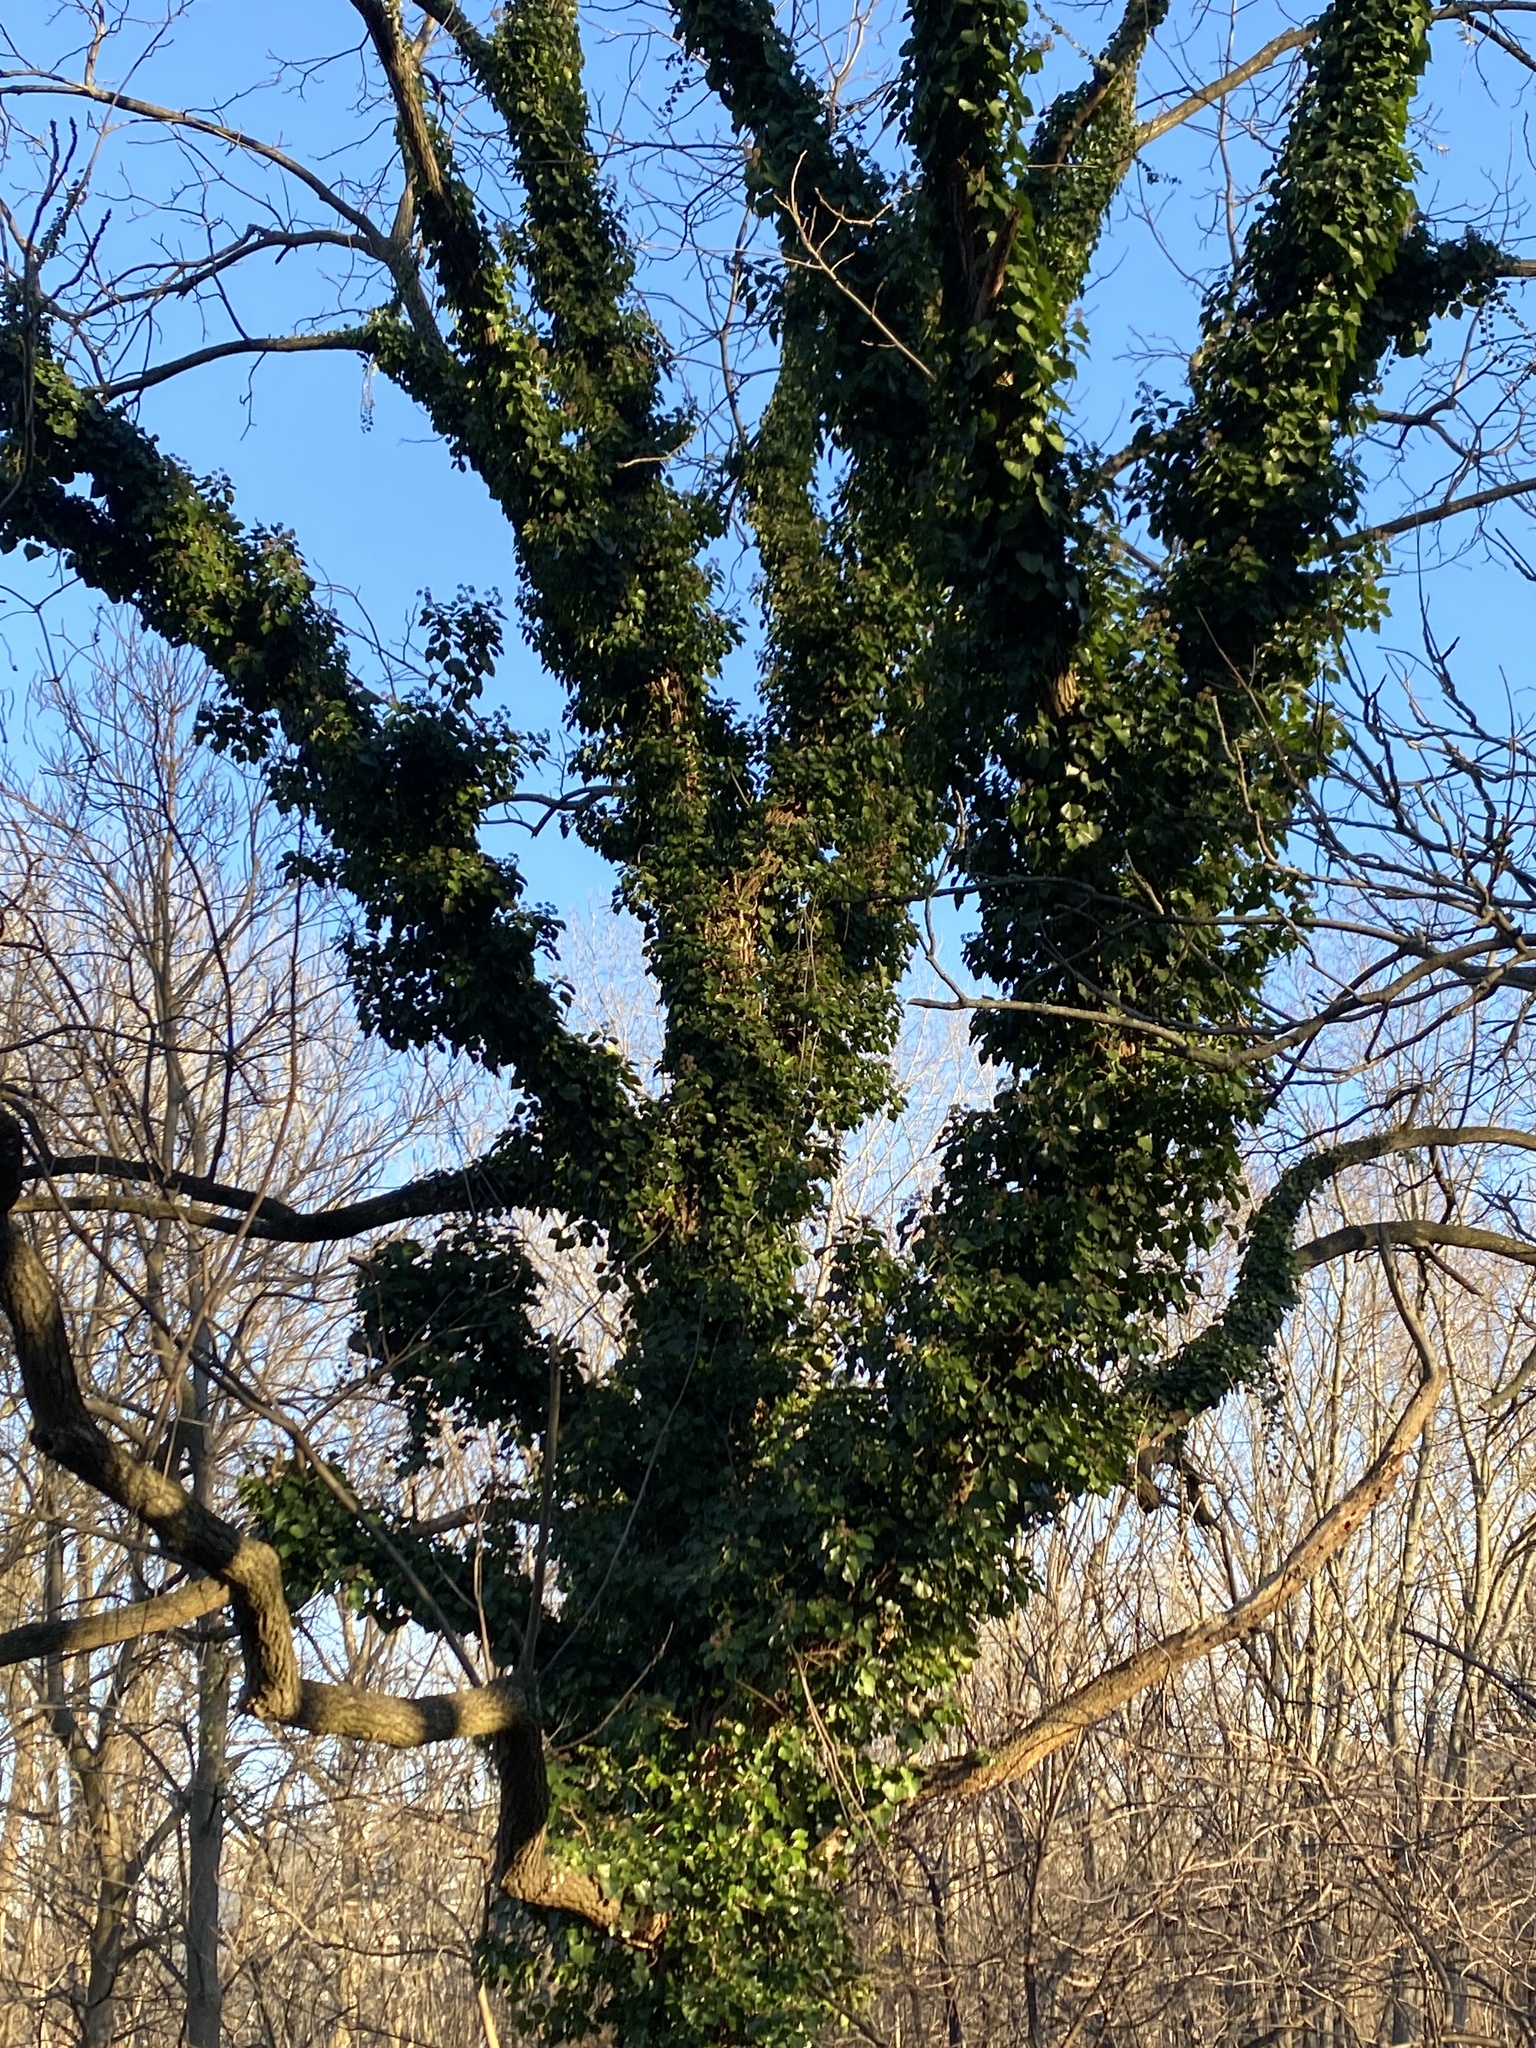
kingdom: Plantae
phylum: Tracheophyta
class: Magnoliopsida
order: Apiales
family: Araliaceae
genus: Hedera
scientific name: Hedera
